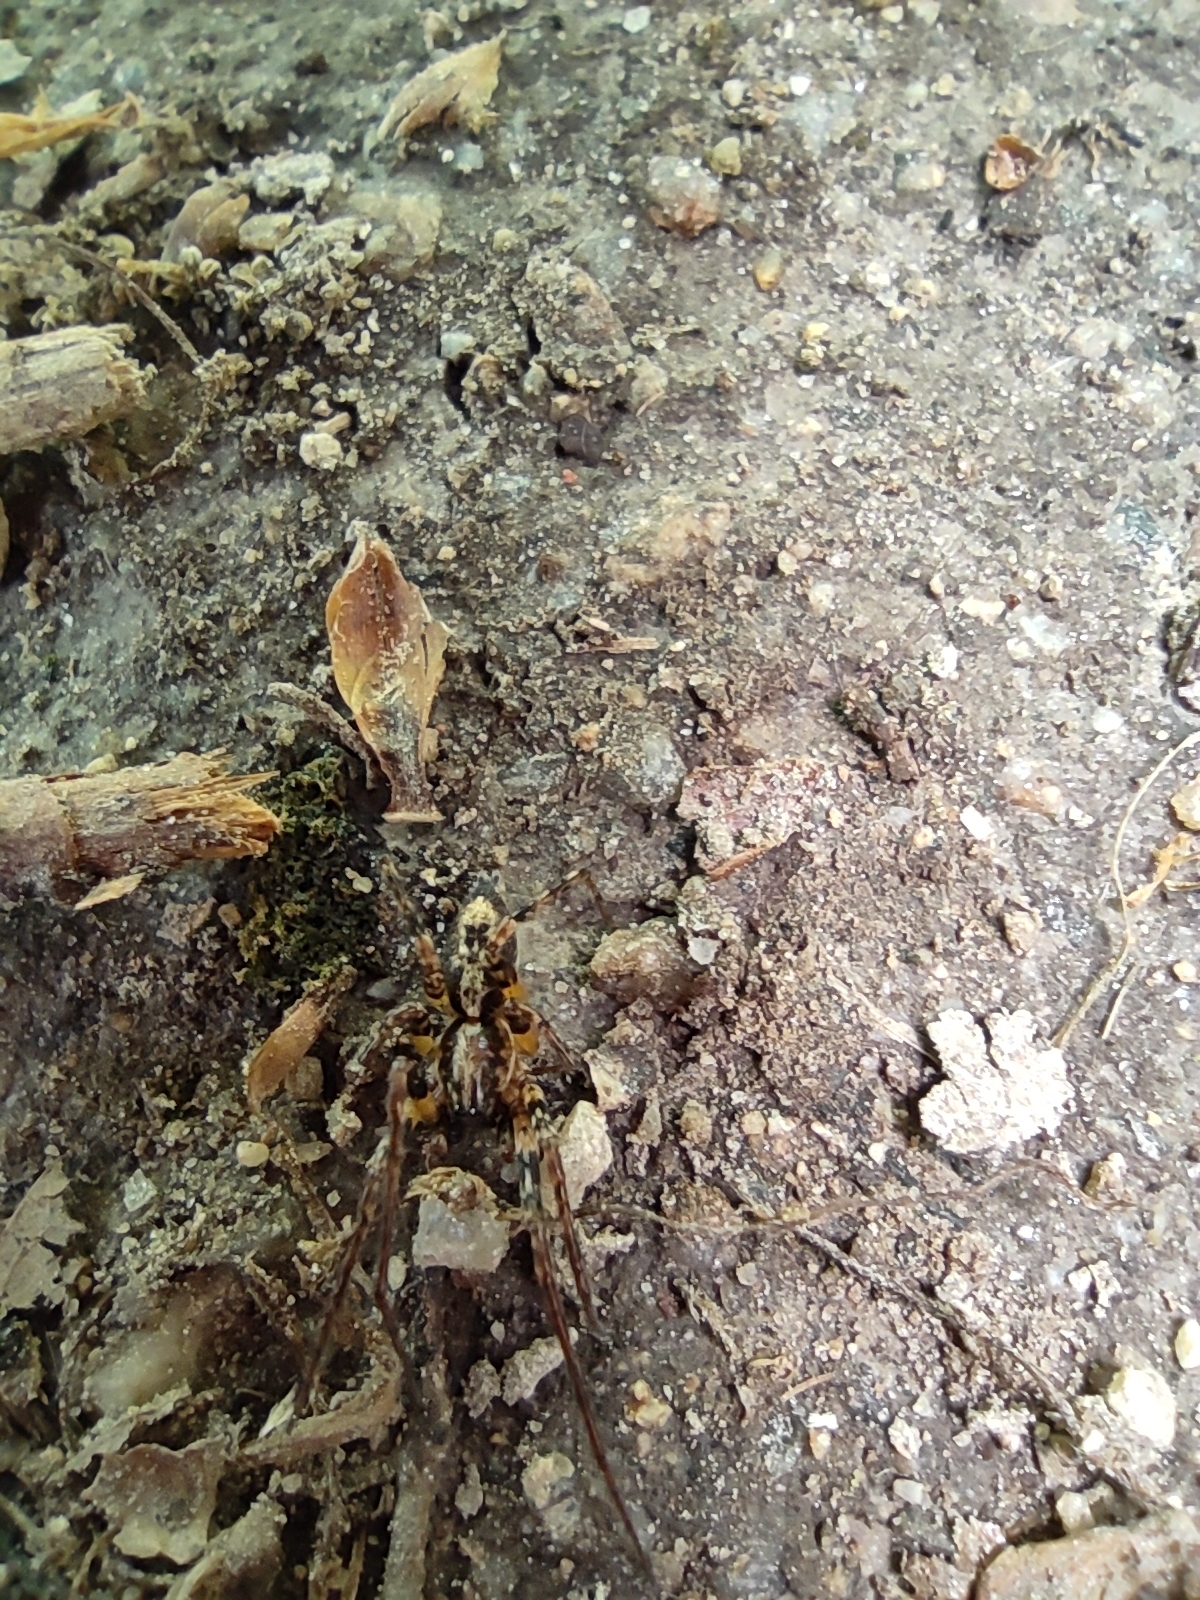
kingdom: Animalia
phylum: Arthropoda
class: Arachnida
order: Araneae
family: Anyphaenidae
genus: Anyphaena
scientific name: Anyphaena accentuata
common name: Buzzing spider
